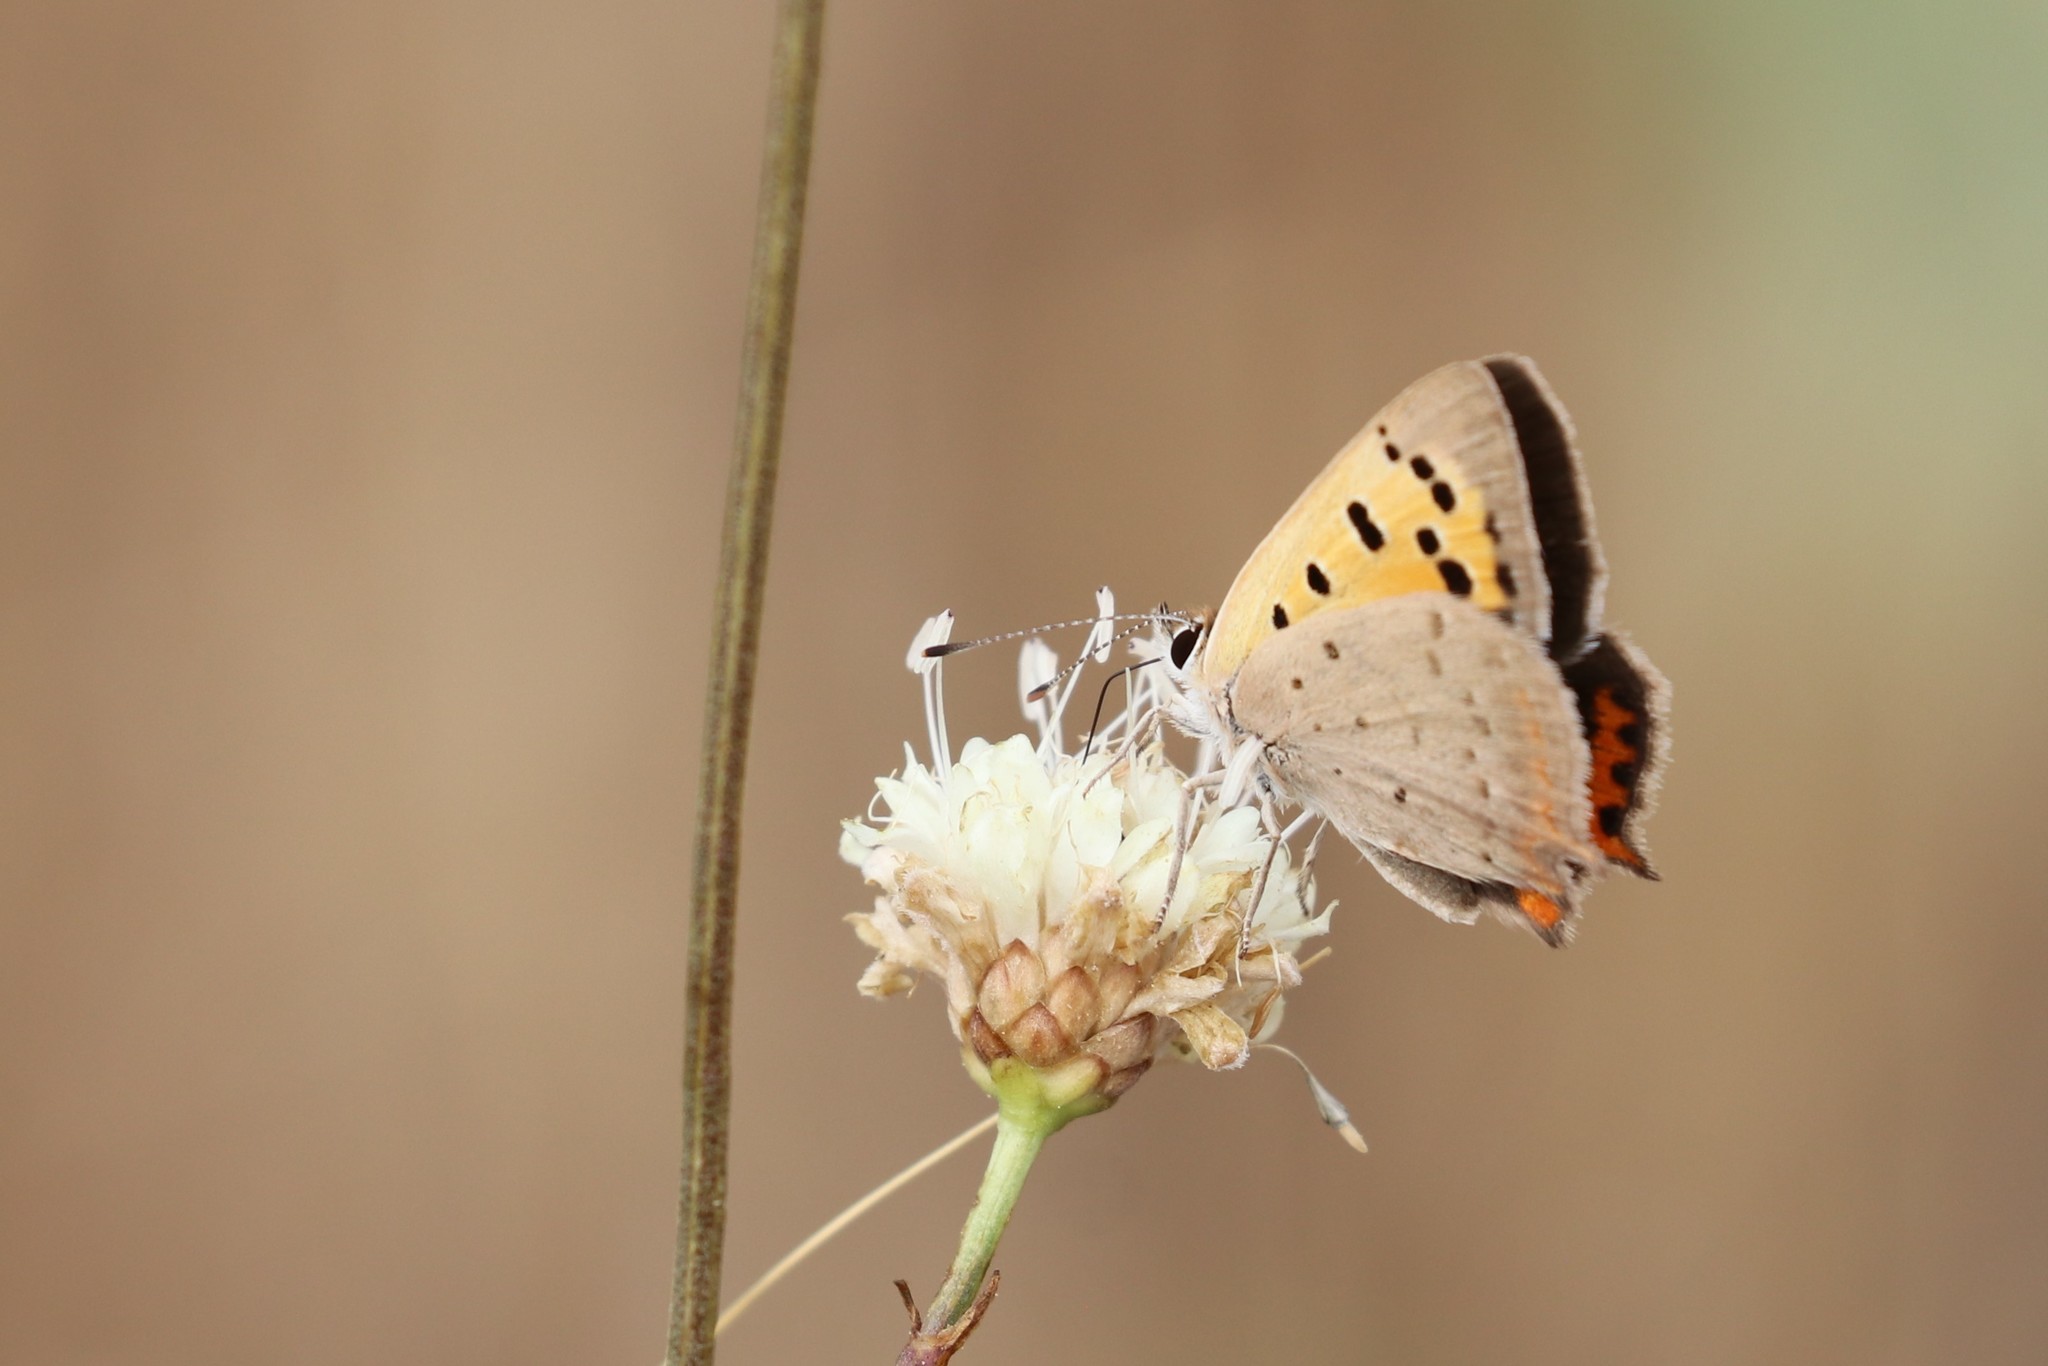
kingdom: Animalia
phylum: Arthropoda
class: Insecta
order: Lepidoptera
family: Lycaenidae
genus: Lycaena
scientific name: Lycaena phlaeas
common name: Small copper
